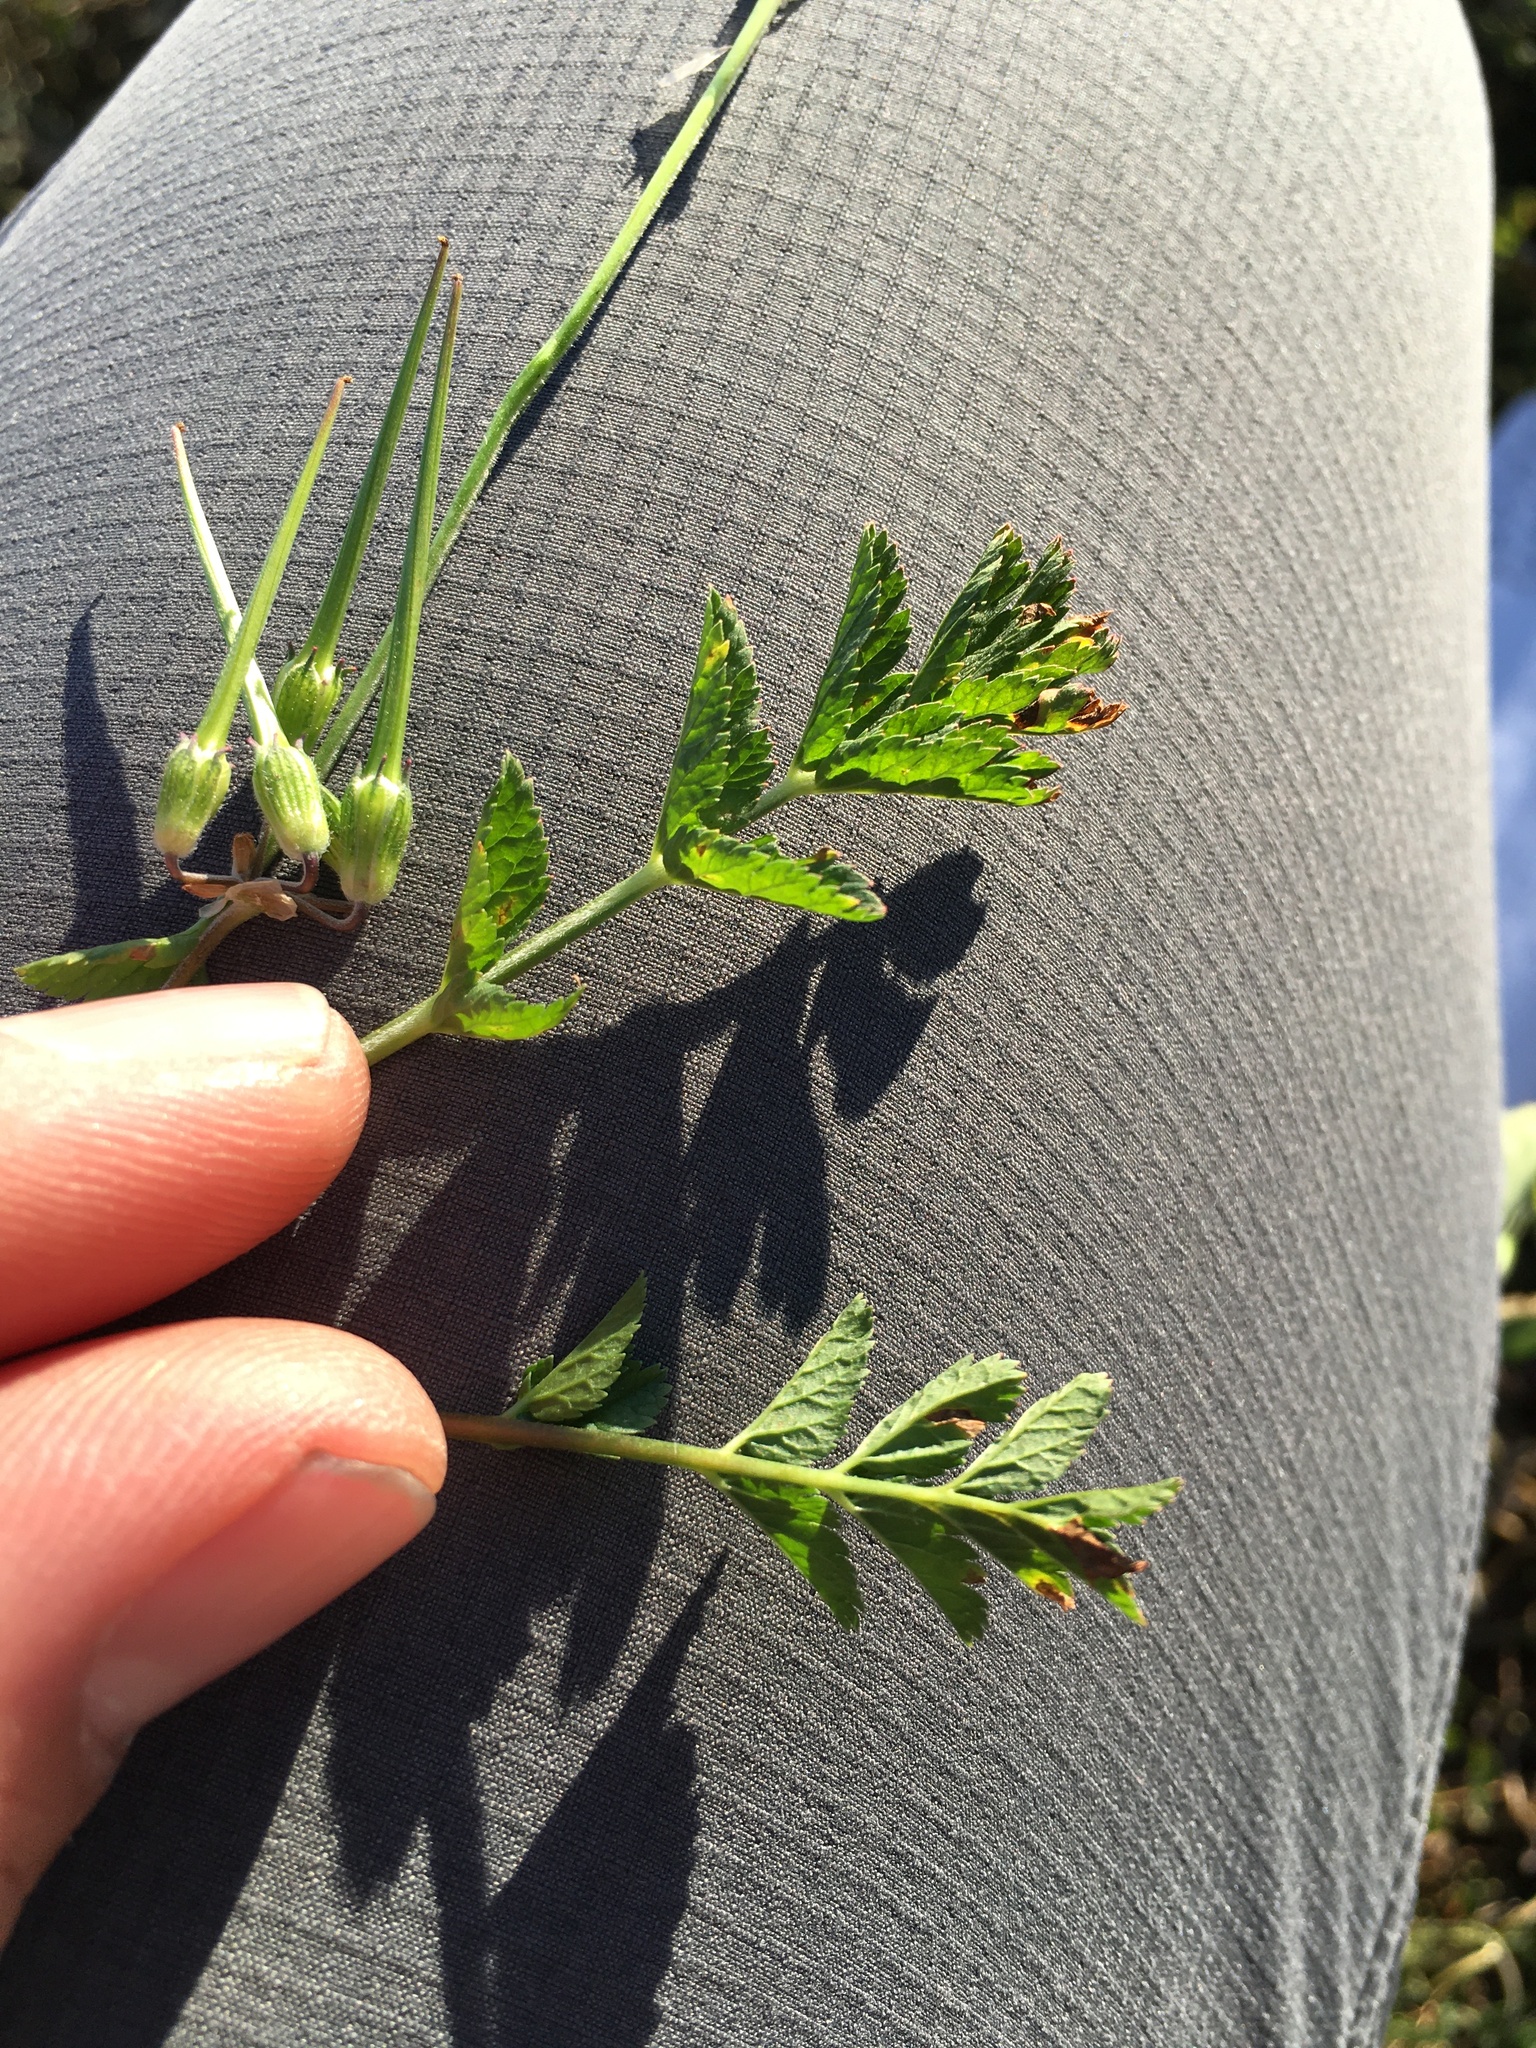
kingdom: Plantae
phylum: Tracheophyta
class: Magnoliopsida
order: Geraniales
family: Geraniaceae
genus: Erodium
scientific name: Erodium moschatum
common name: Musk stork's-bill
